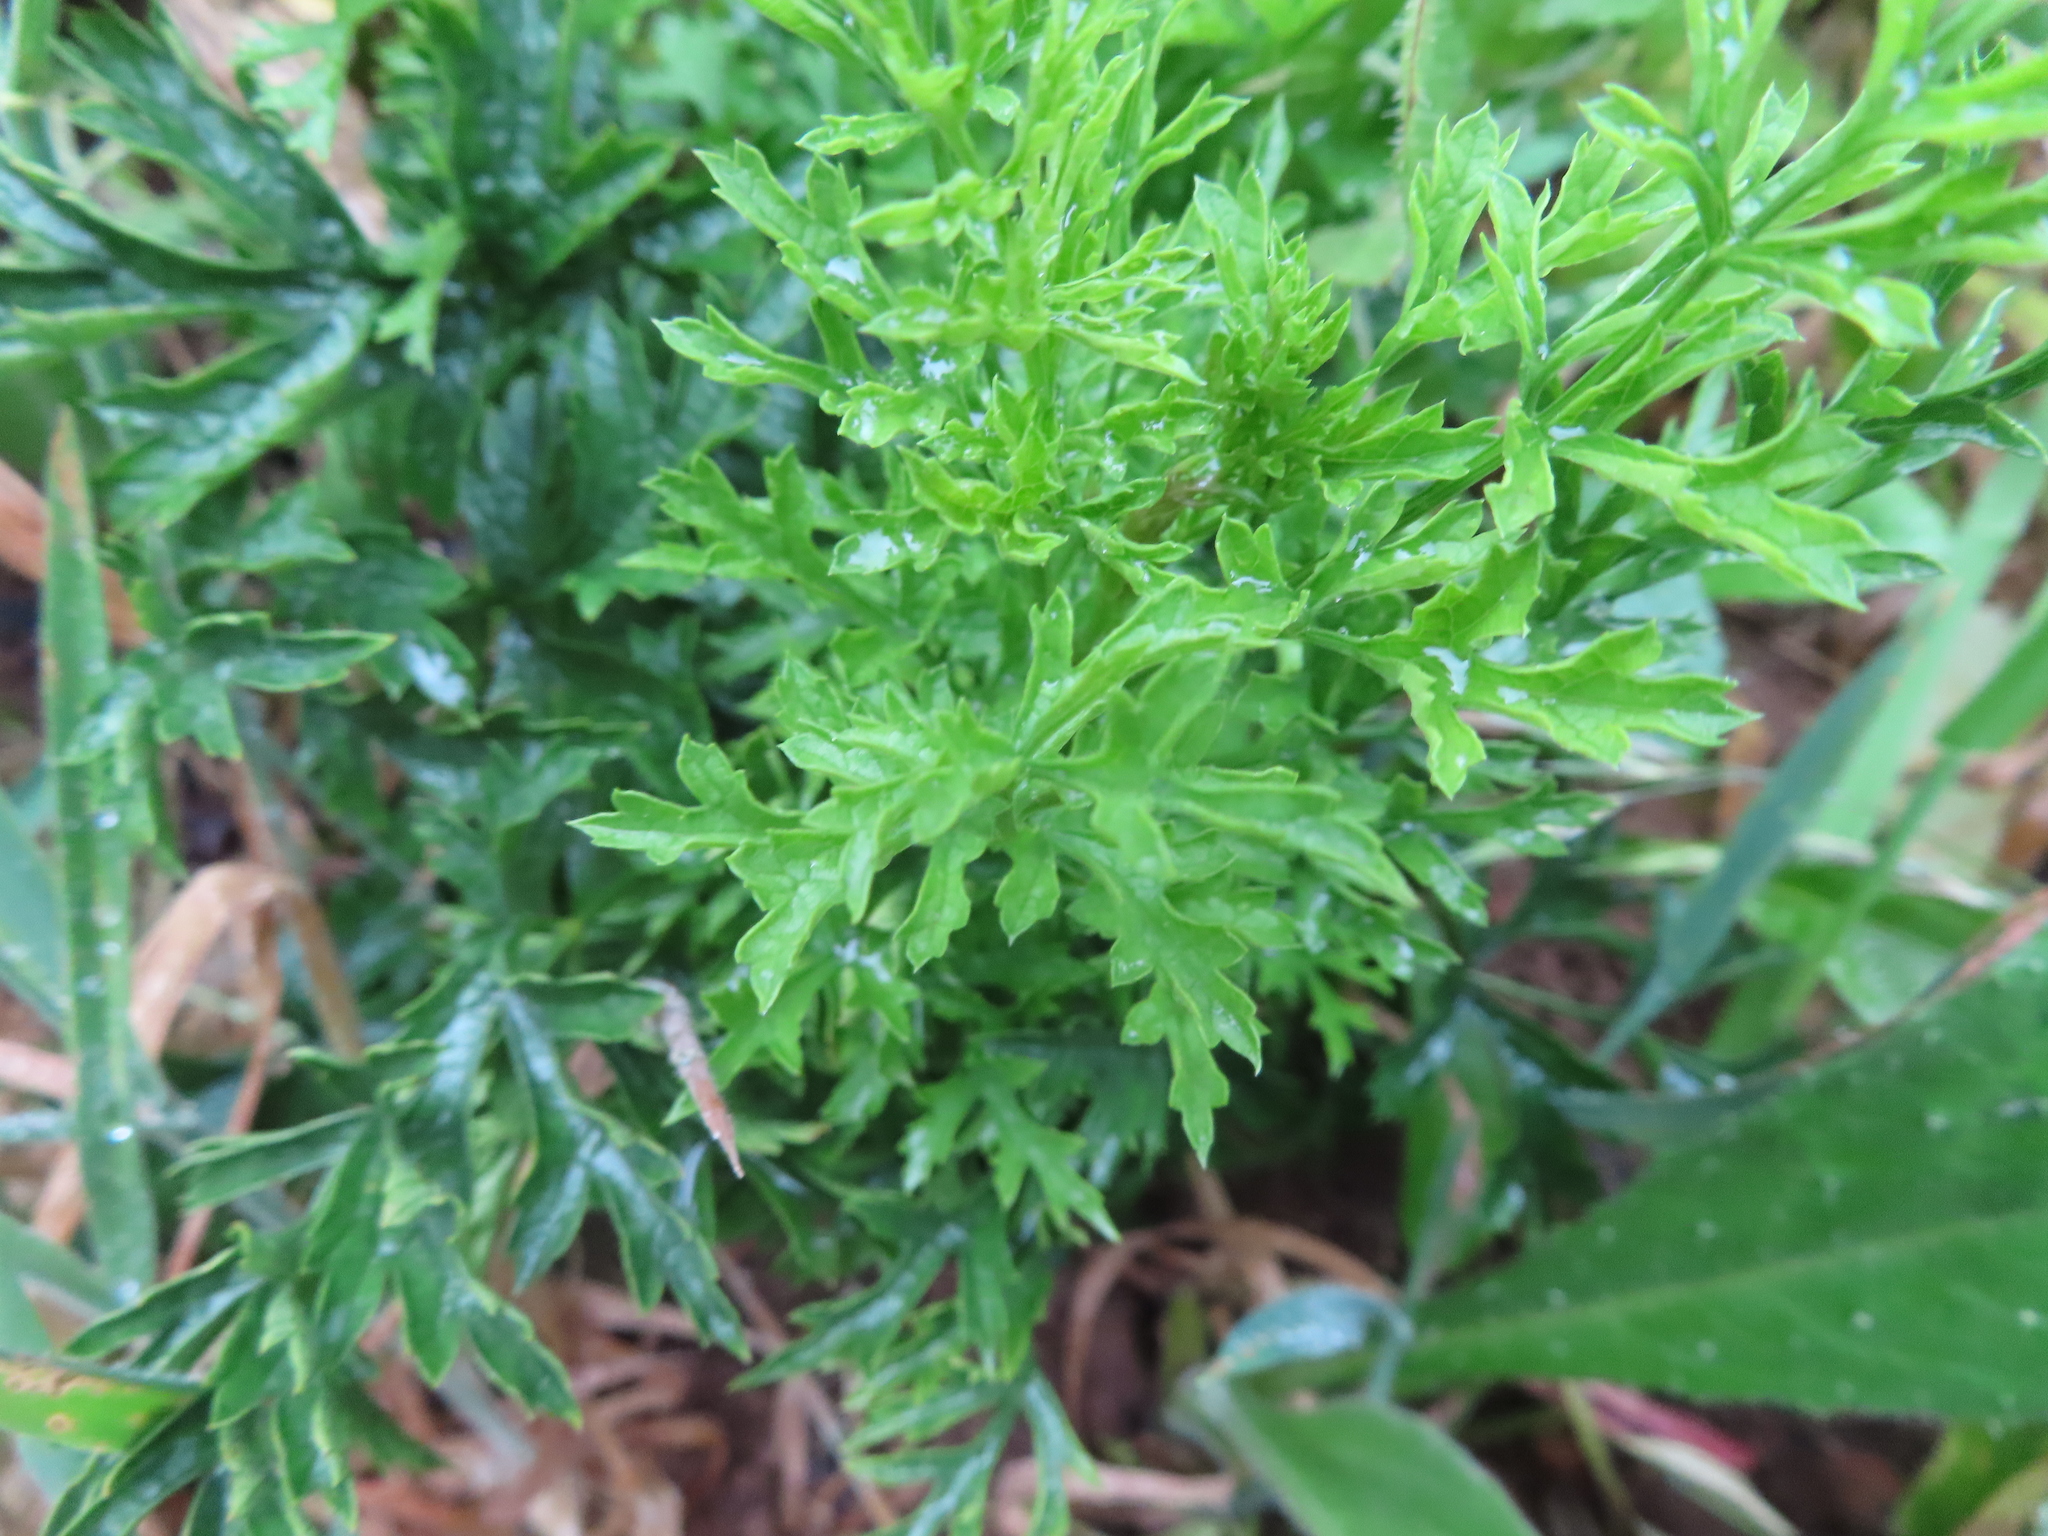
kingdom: Plantae
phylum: Tracheophyta
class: Magnoliopsida
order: Ranunculales
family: Ranunculaceae
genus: Knowltonia
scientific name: Knowltonia tenuifolia
